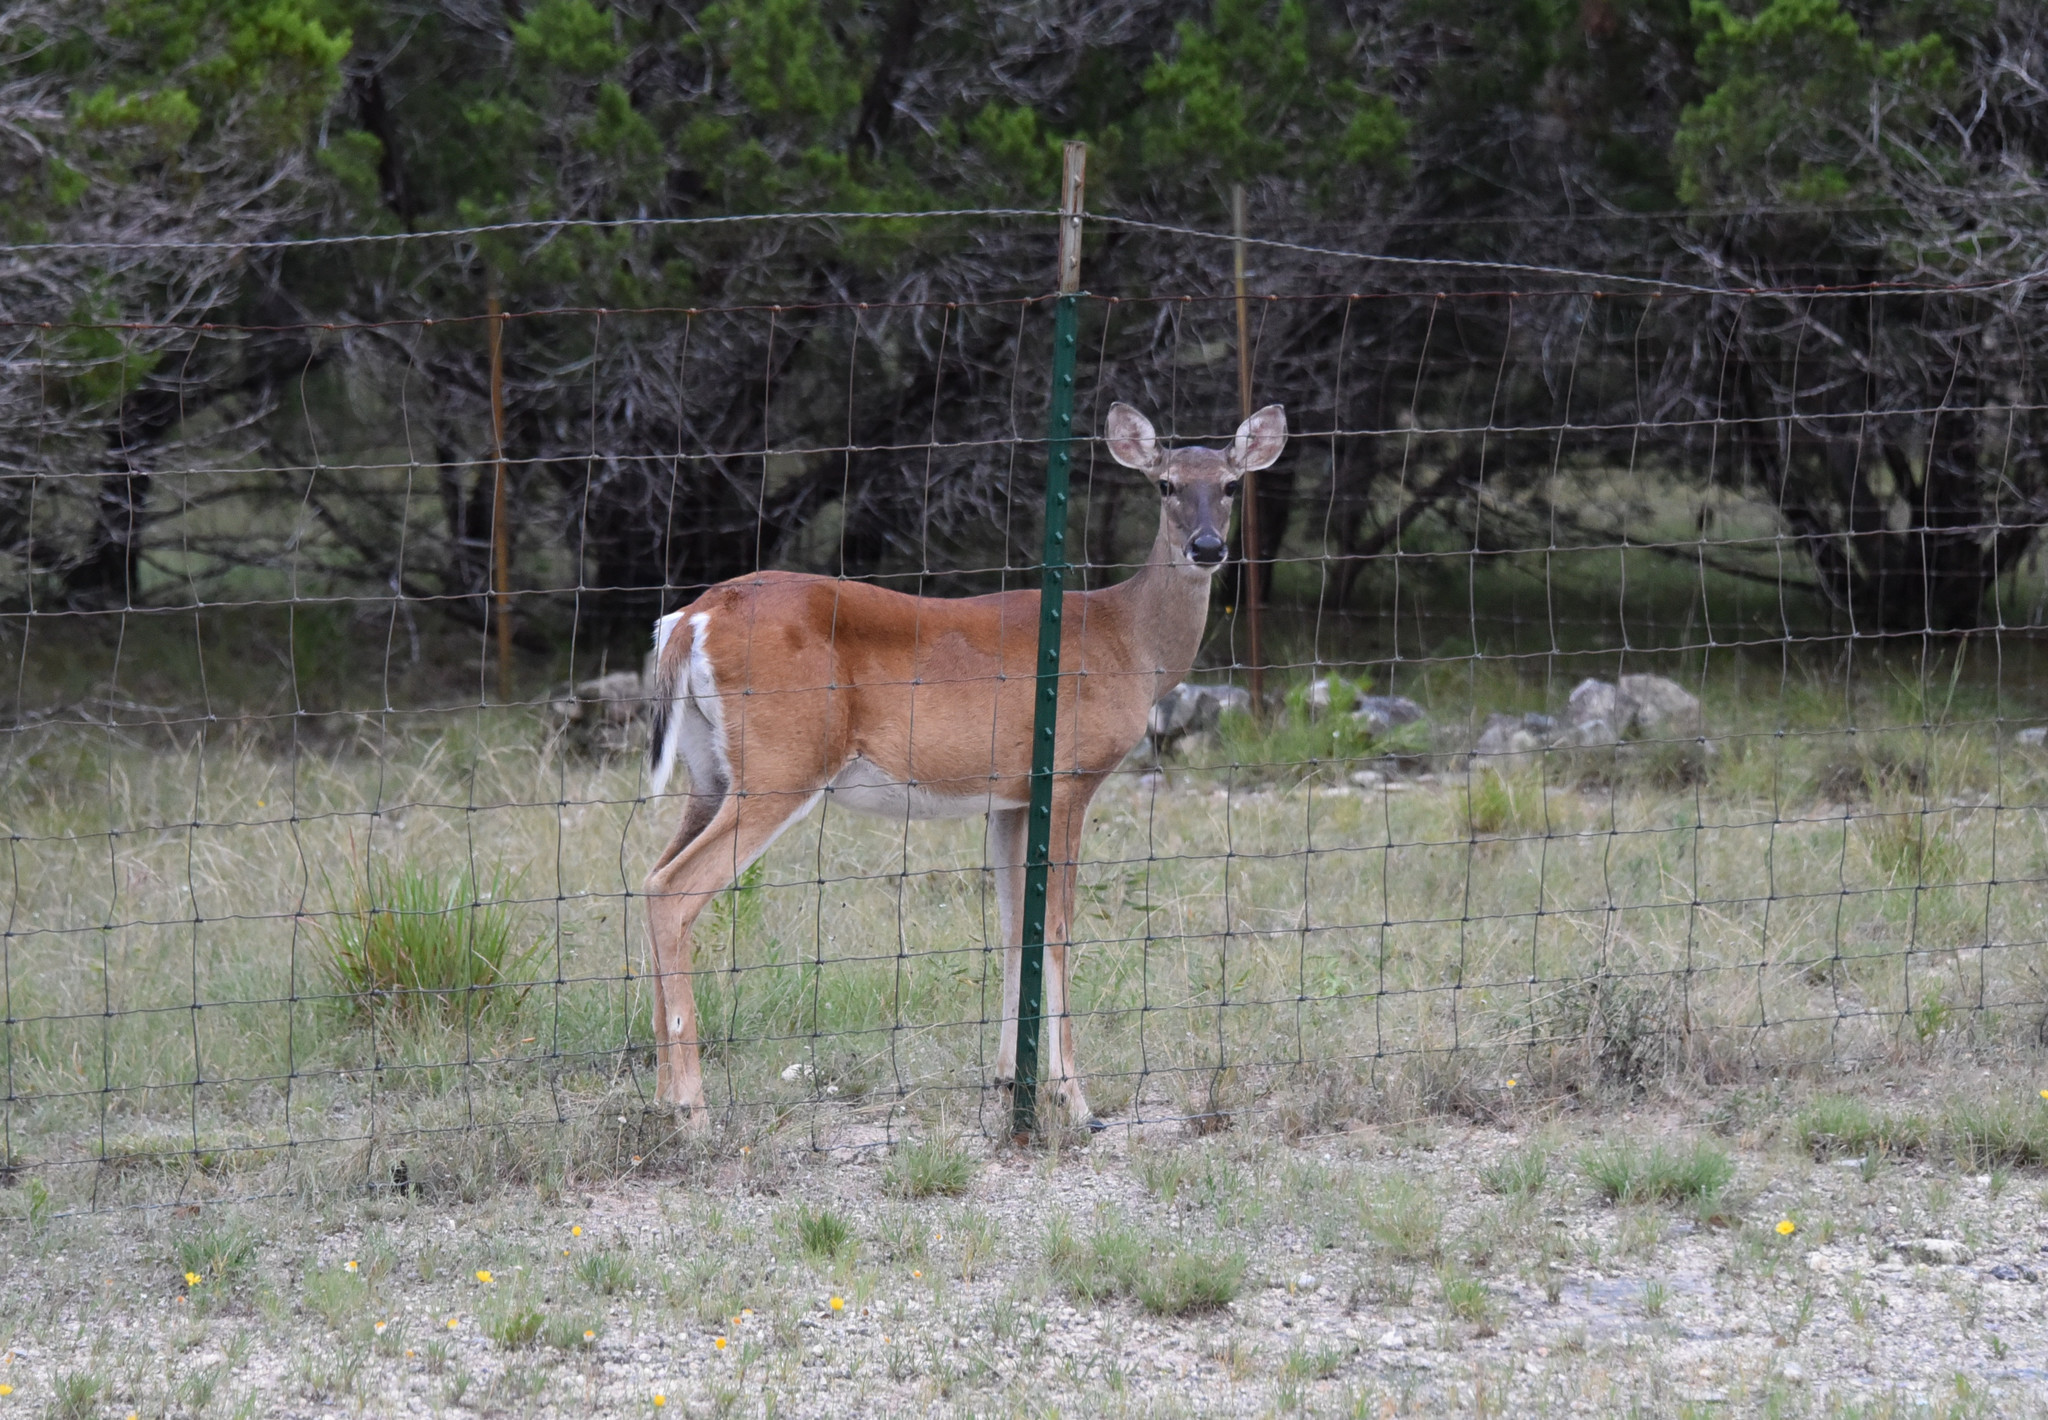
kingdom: Animalia
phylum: Chordata
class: Mammalia
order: Artiodactyla
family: Cervidae
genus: Odocoileus
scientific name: Odocoileus virginianus
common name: White-tailed deer
